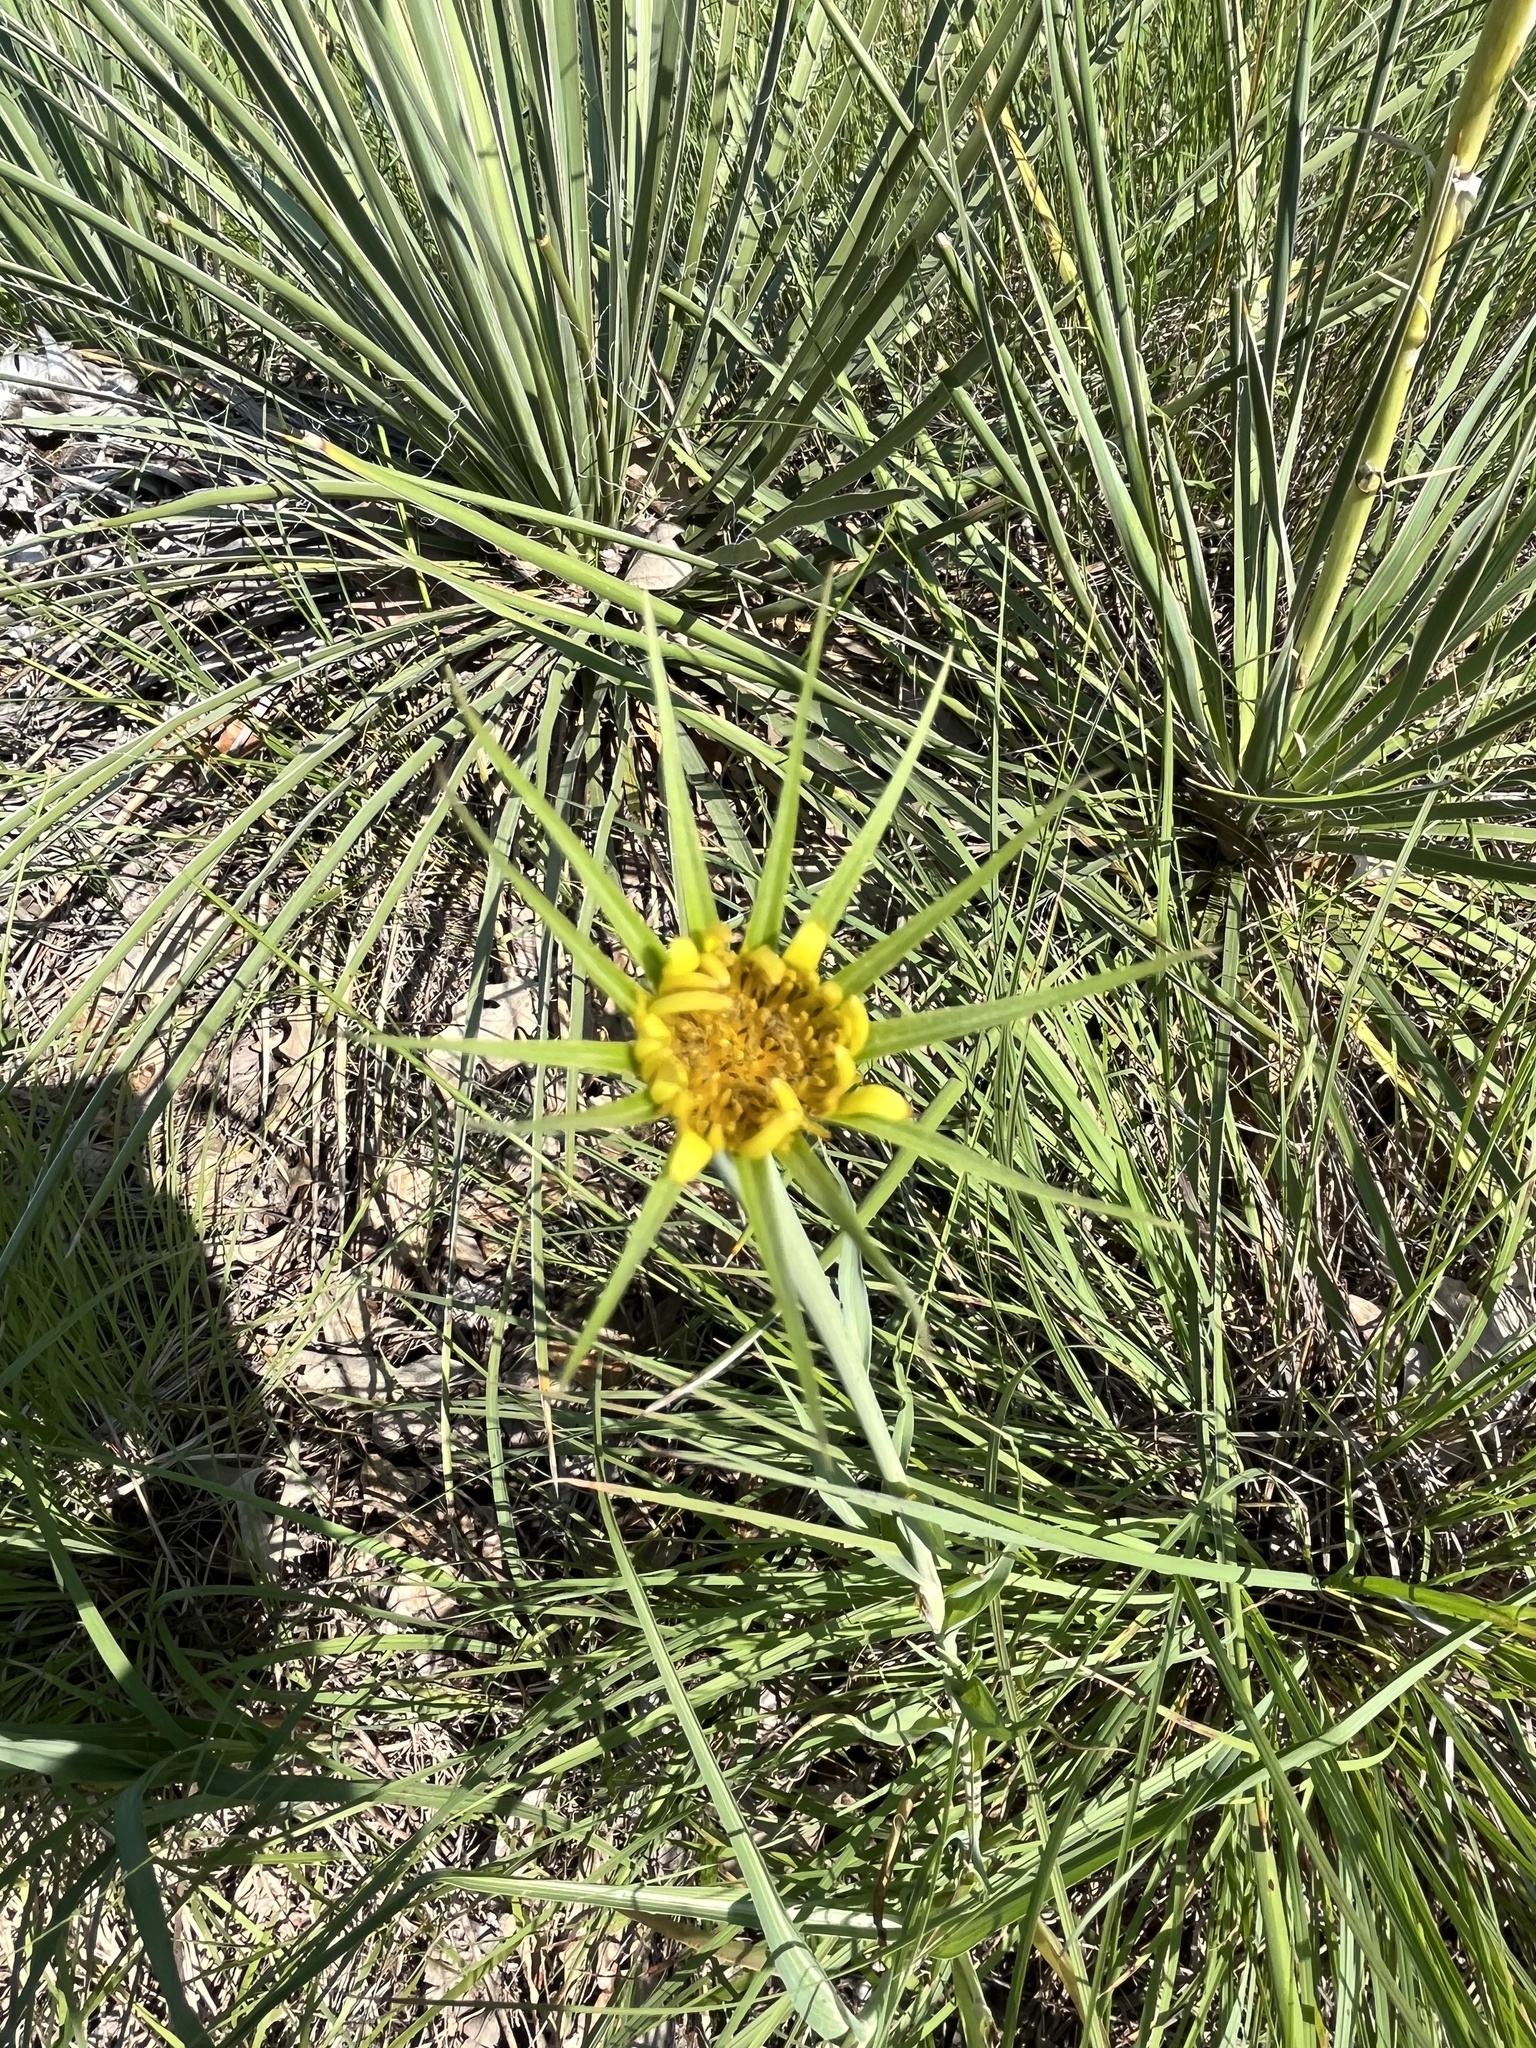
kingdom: Plantae
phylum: Tracheophyta
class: Magnoliopsida
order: Asterales
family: Asteraceae
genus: Tragopogon
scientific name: Tragopogon dubius
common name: Yellow salsify
